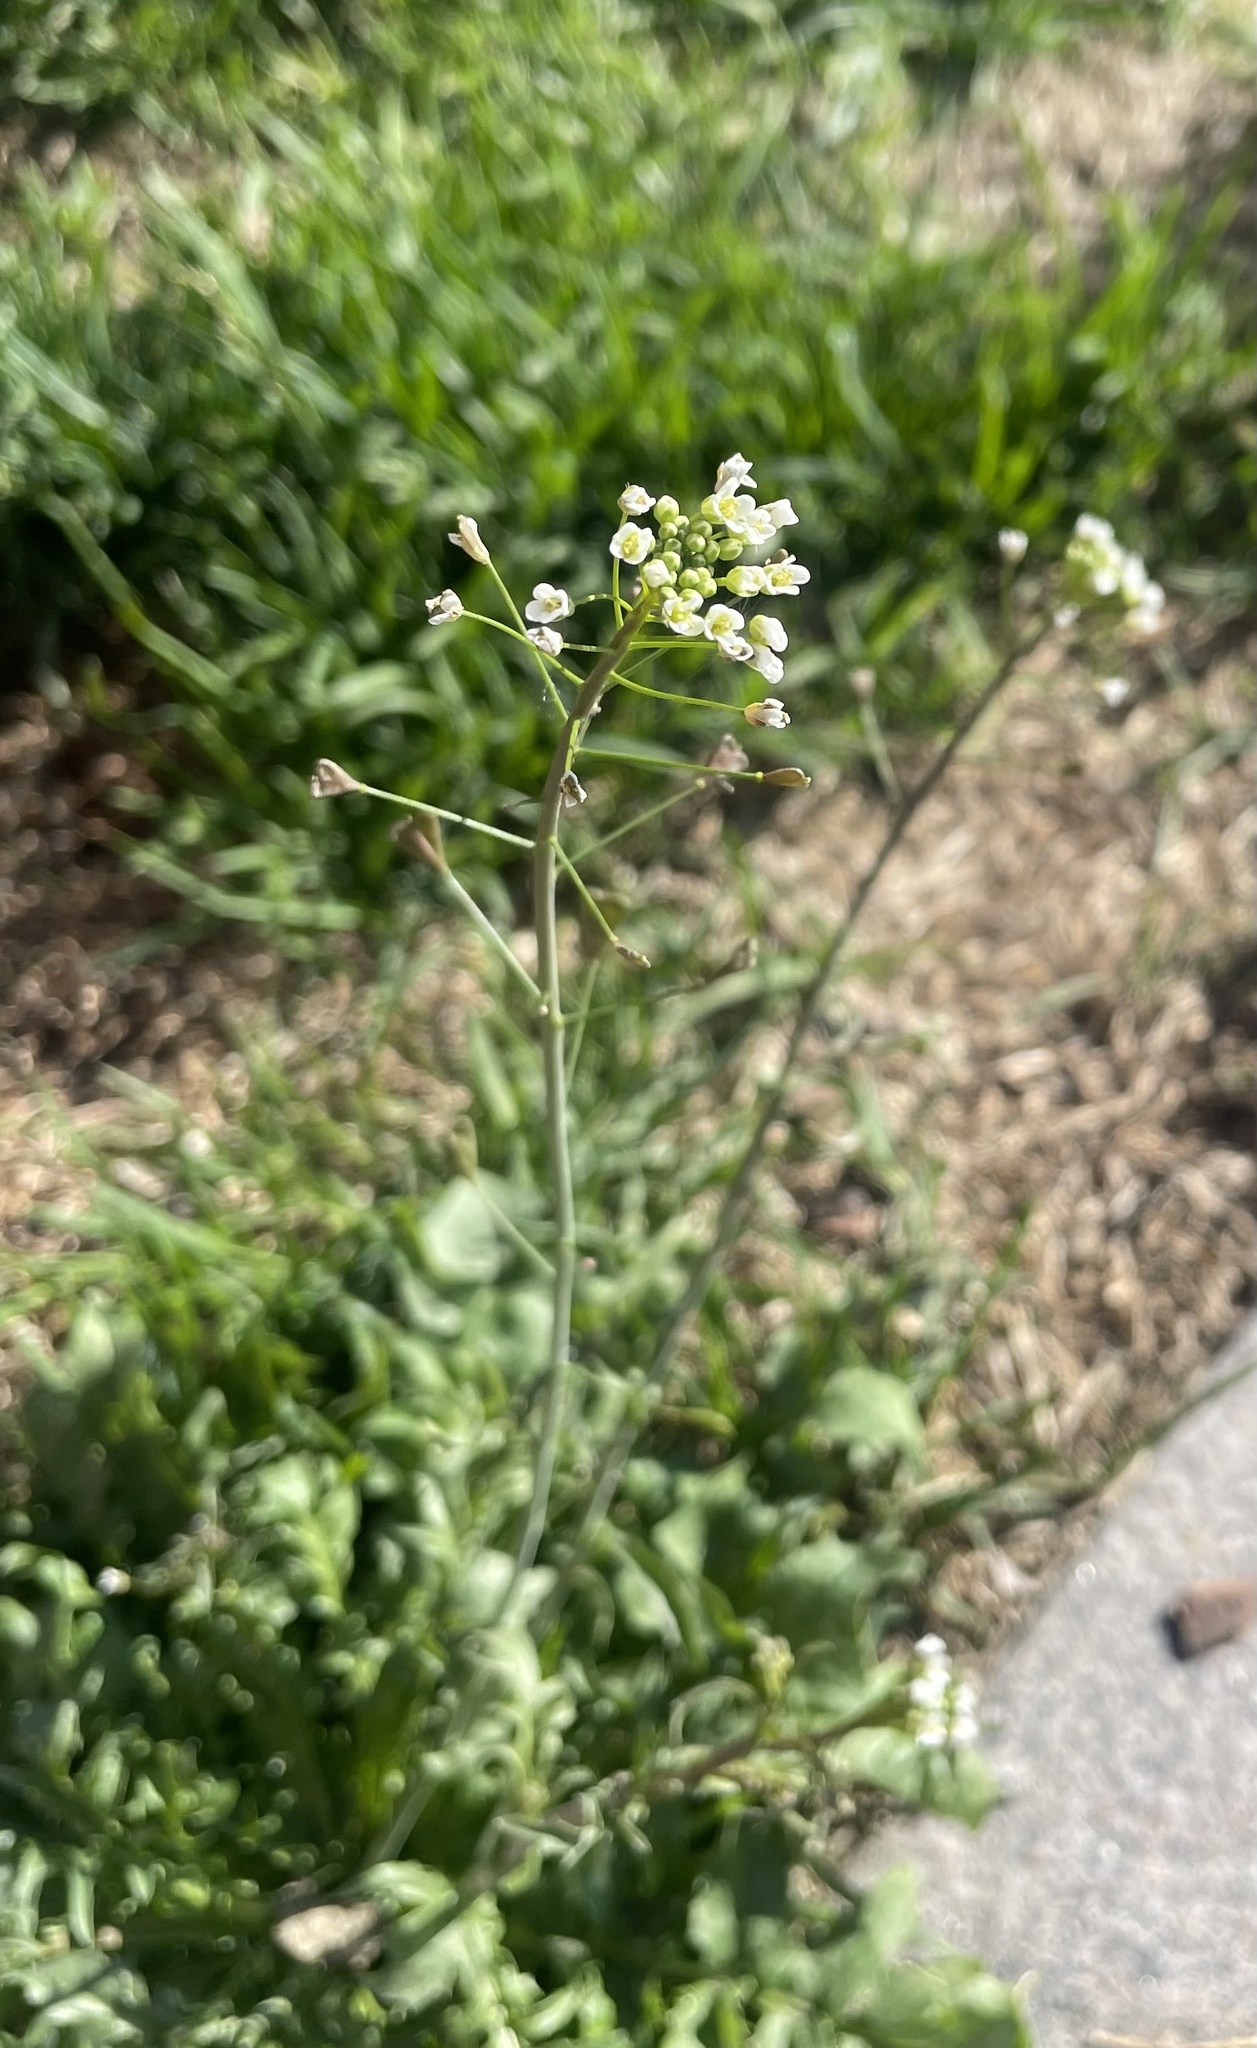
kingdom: Plantae
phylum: Tracheophyta
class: Magnoliopsida
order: Brassicales
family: Brassicaceae
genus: Capsella
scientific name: Capsella bursa-pastoris
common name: Shepherd's purse
